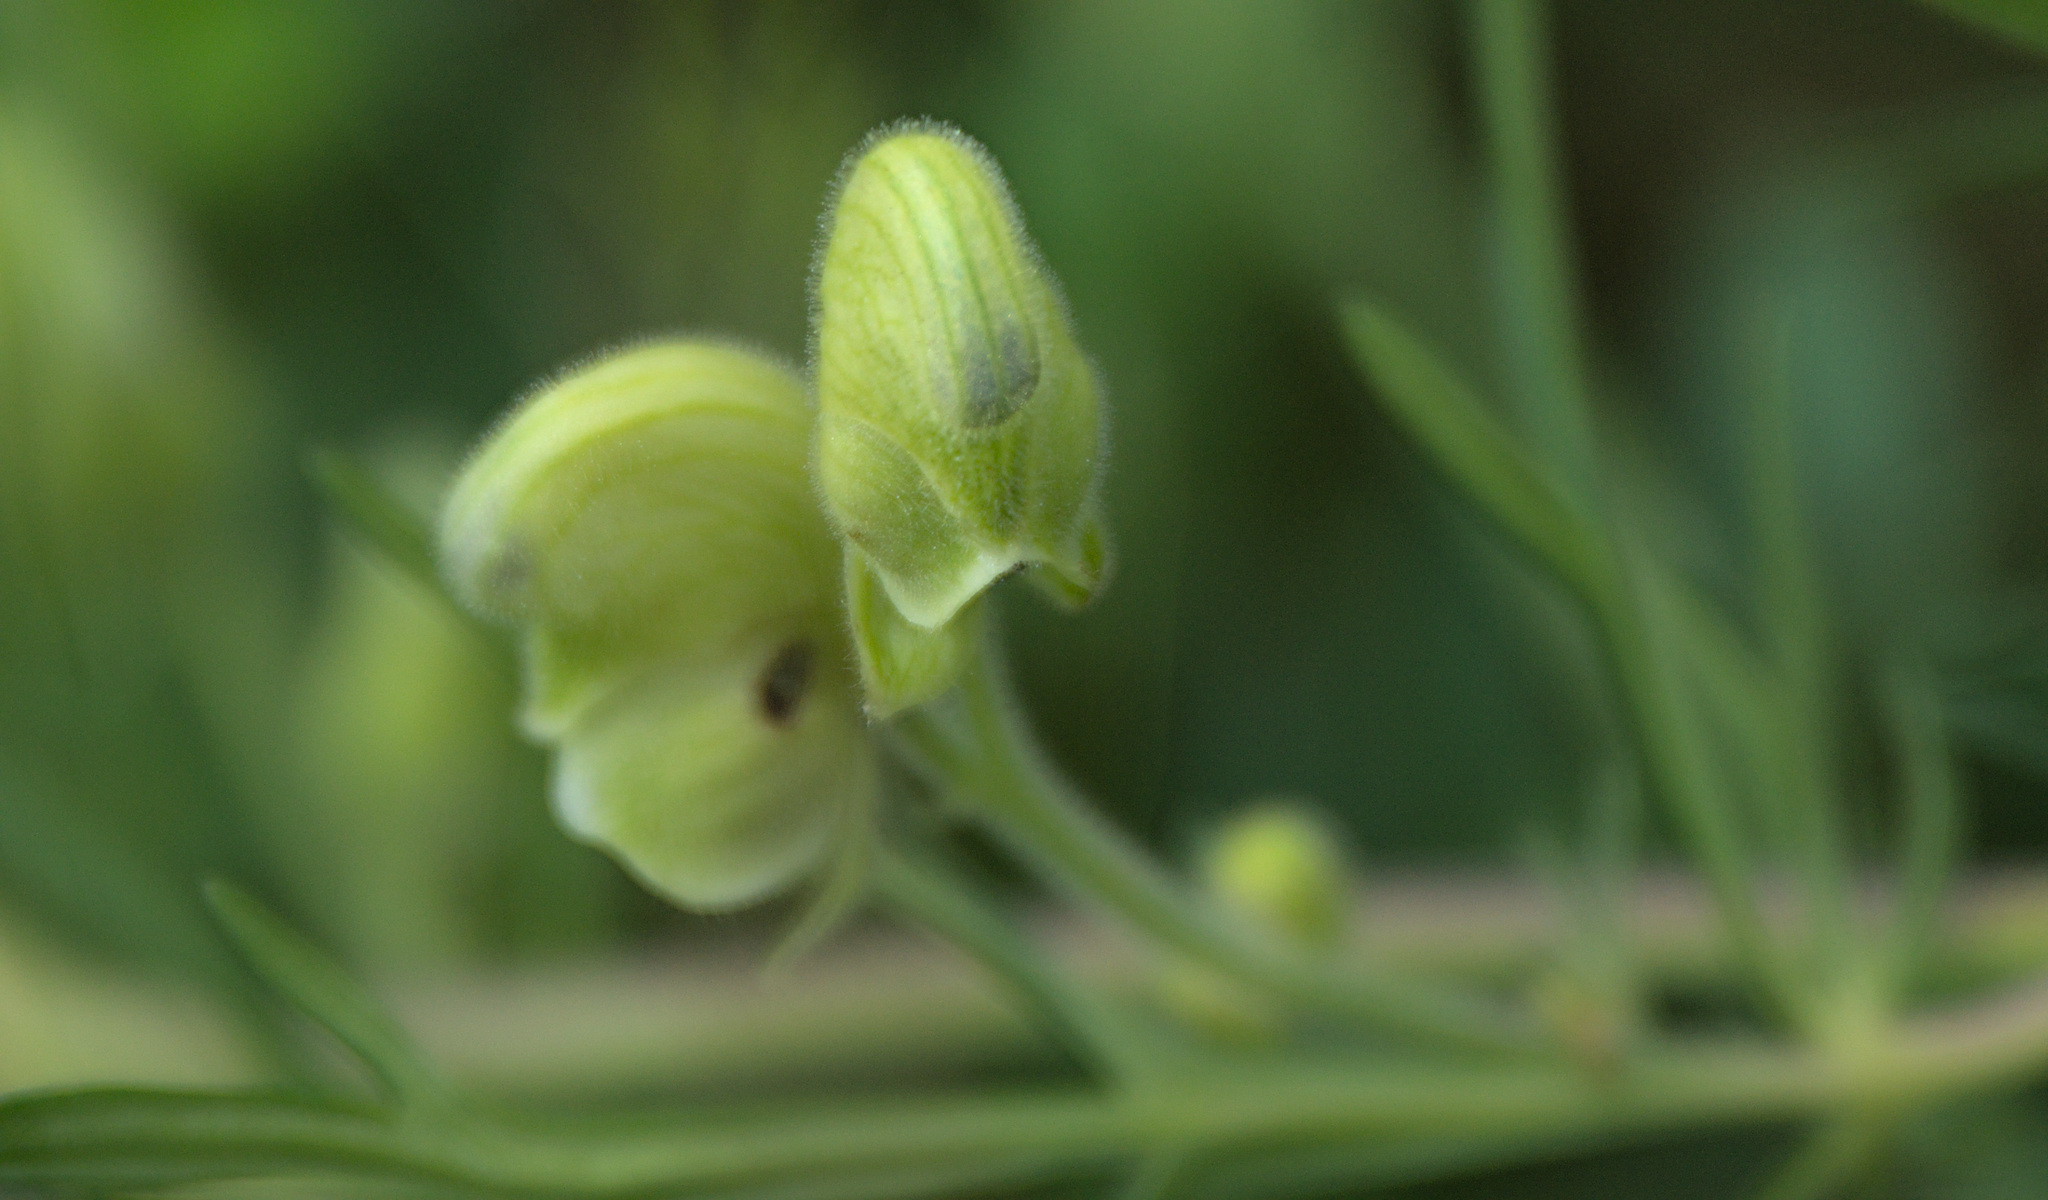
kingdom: Plantae
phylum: Tracheophyta
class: Magnoliopsida
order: Ranunculales
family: Ranunculaceae
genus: Aconitum
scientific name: Aconitum anthora
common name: Yellow monkshood
